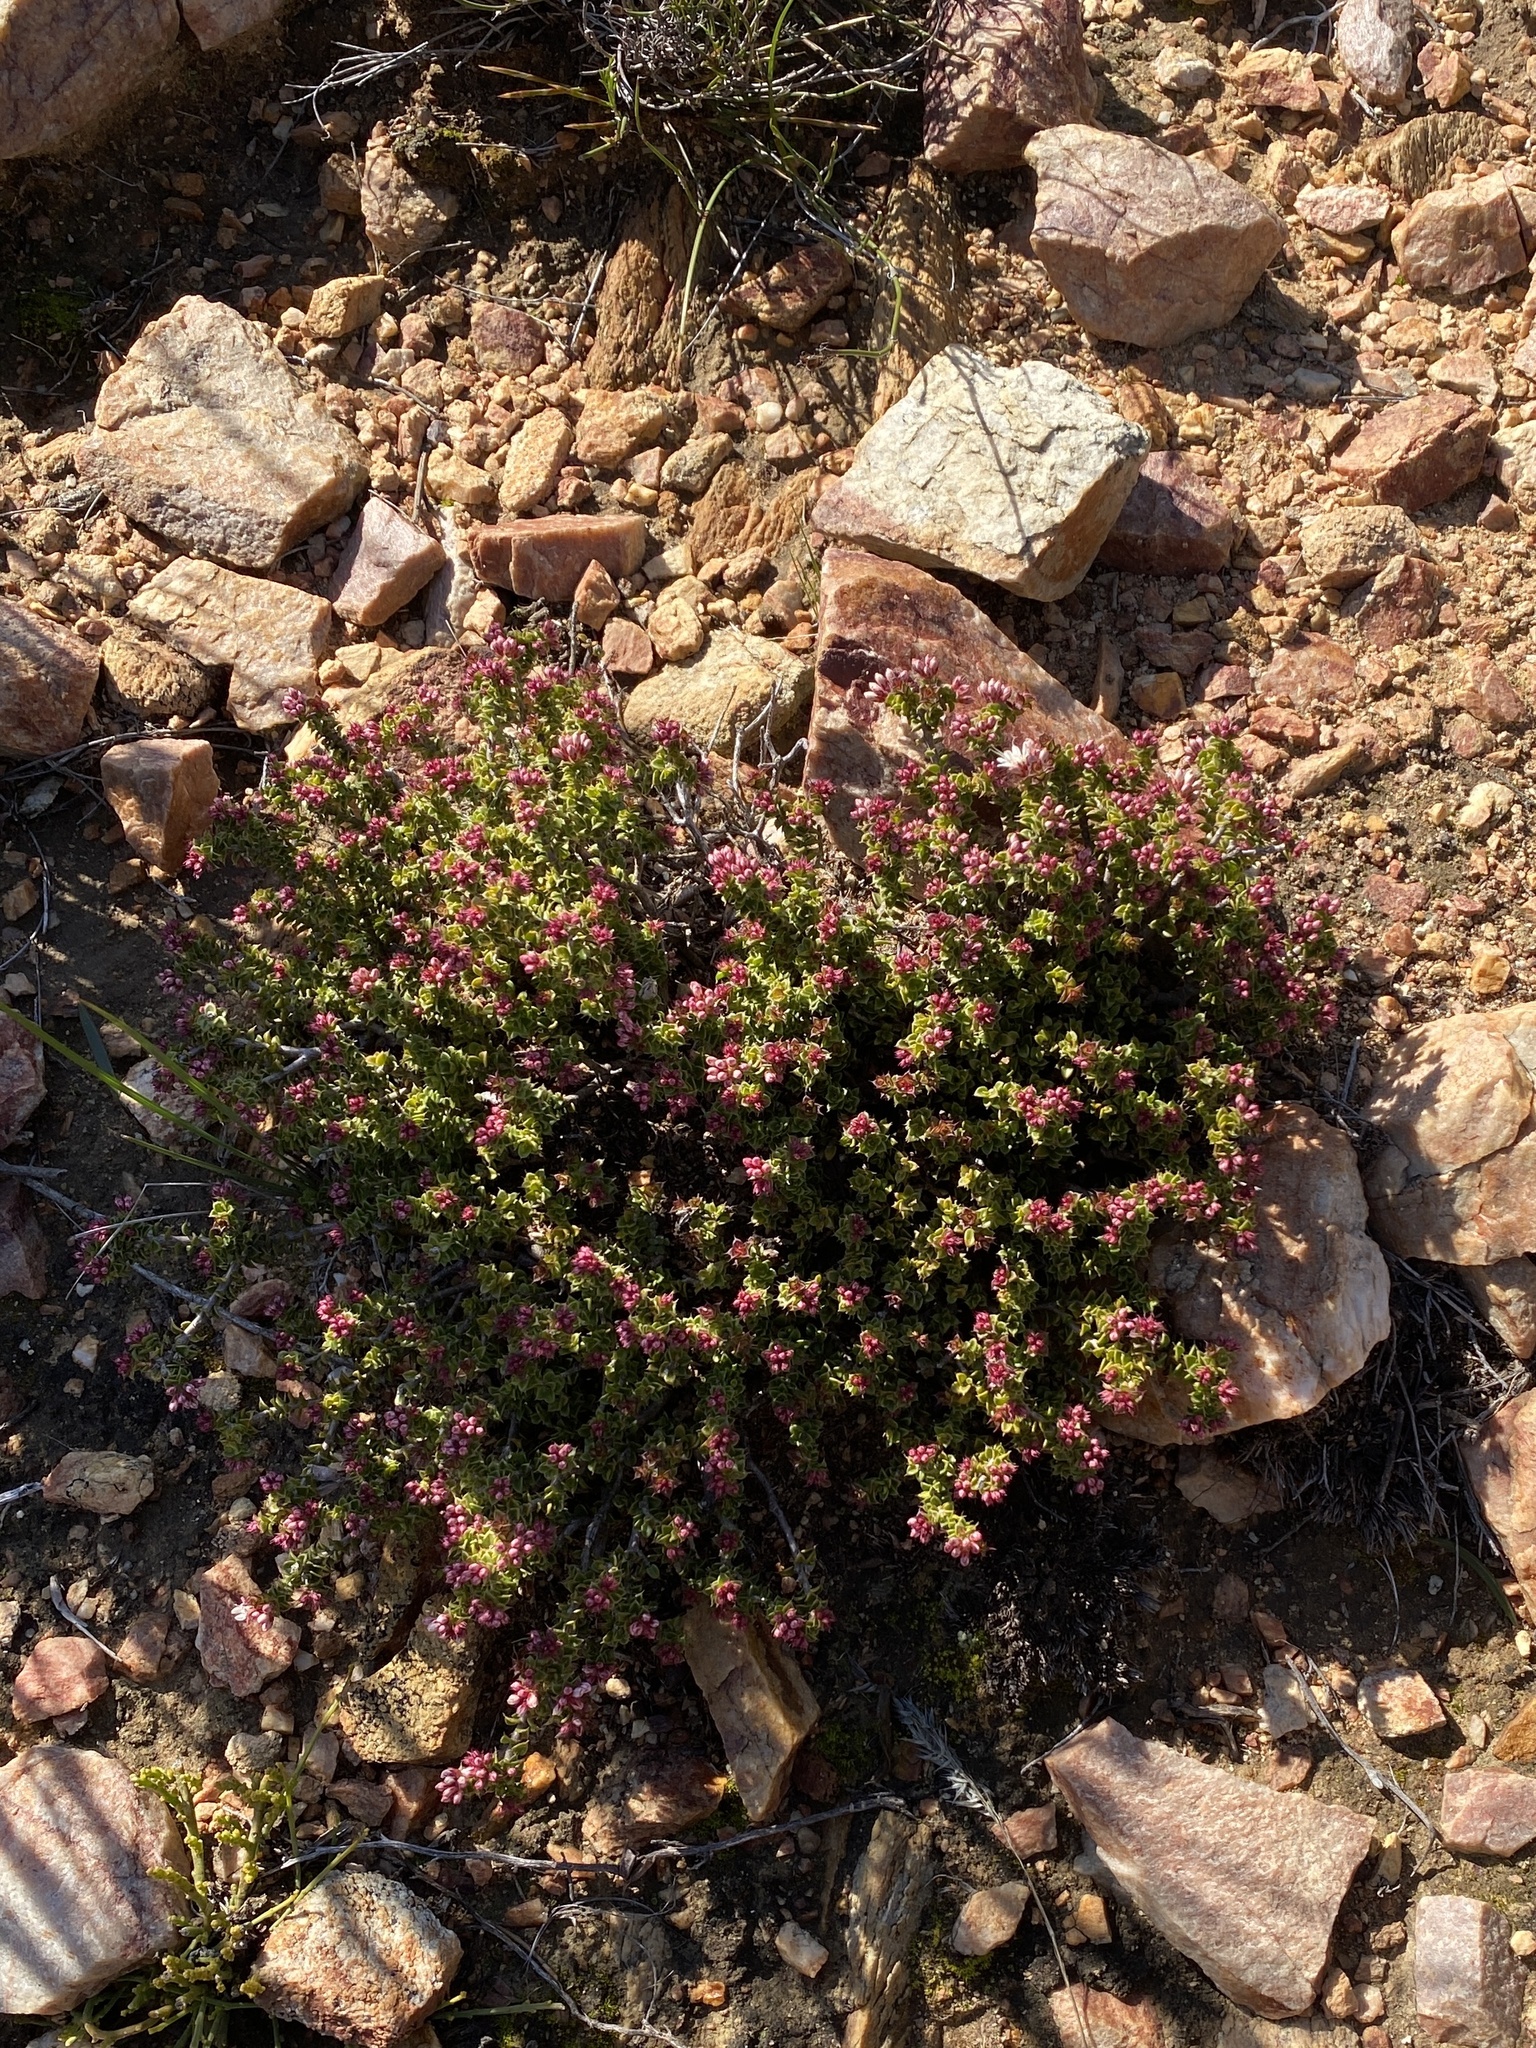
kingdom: Plantae
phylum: Tracheophyta
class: Magnoliopsida
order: Sapindales
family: Rutaceae
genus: Agathosma
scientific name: Agathosma spinosa
